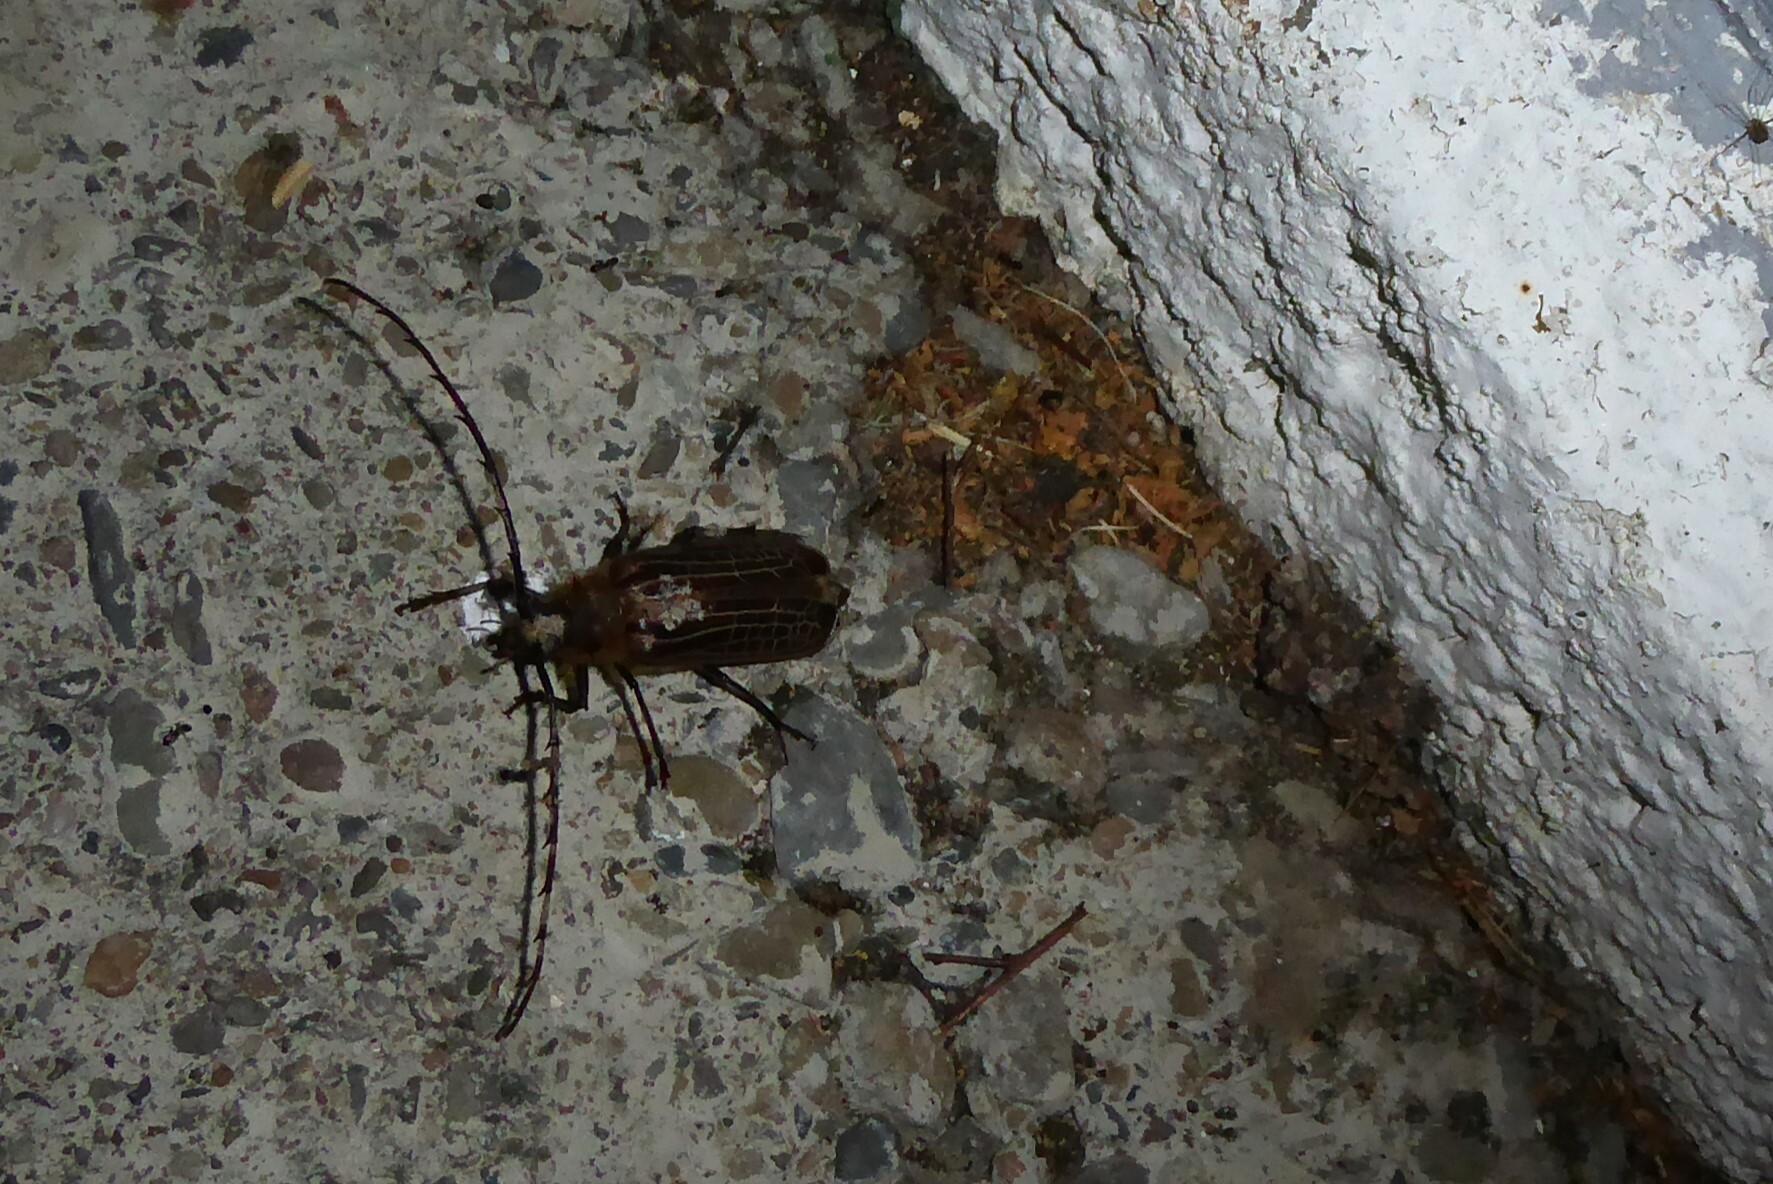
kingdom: Animalia
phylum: Arthropoda
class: Insecta
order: Coleoptera
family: Cerambycidae
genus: Prionoplus
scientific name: Prionoplus reticularis
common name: Huhu beetle
